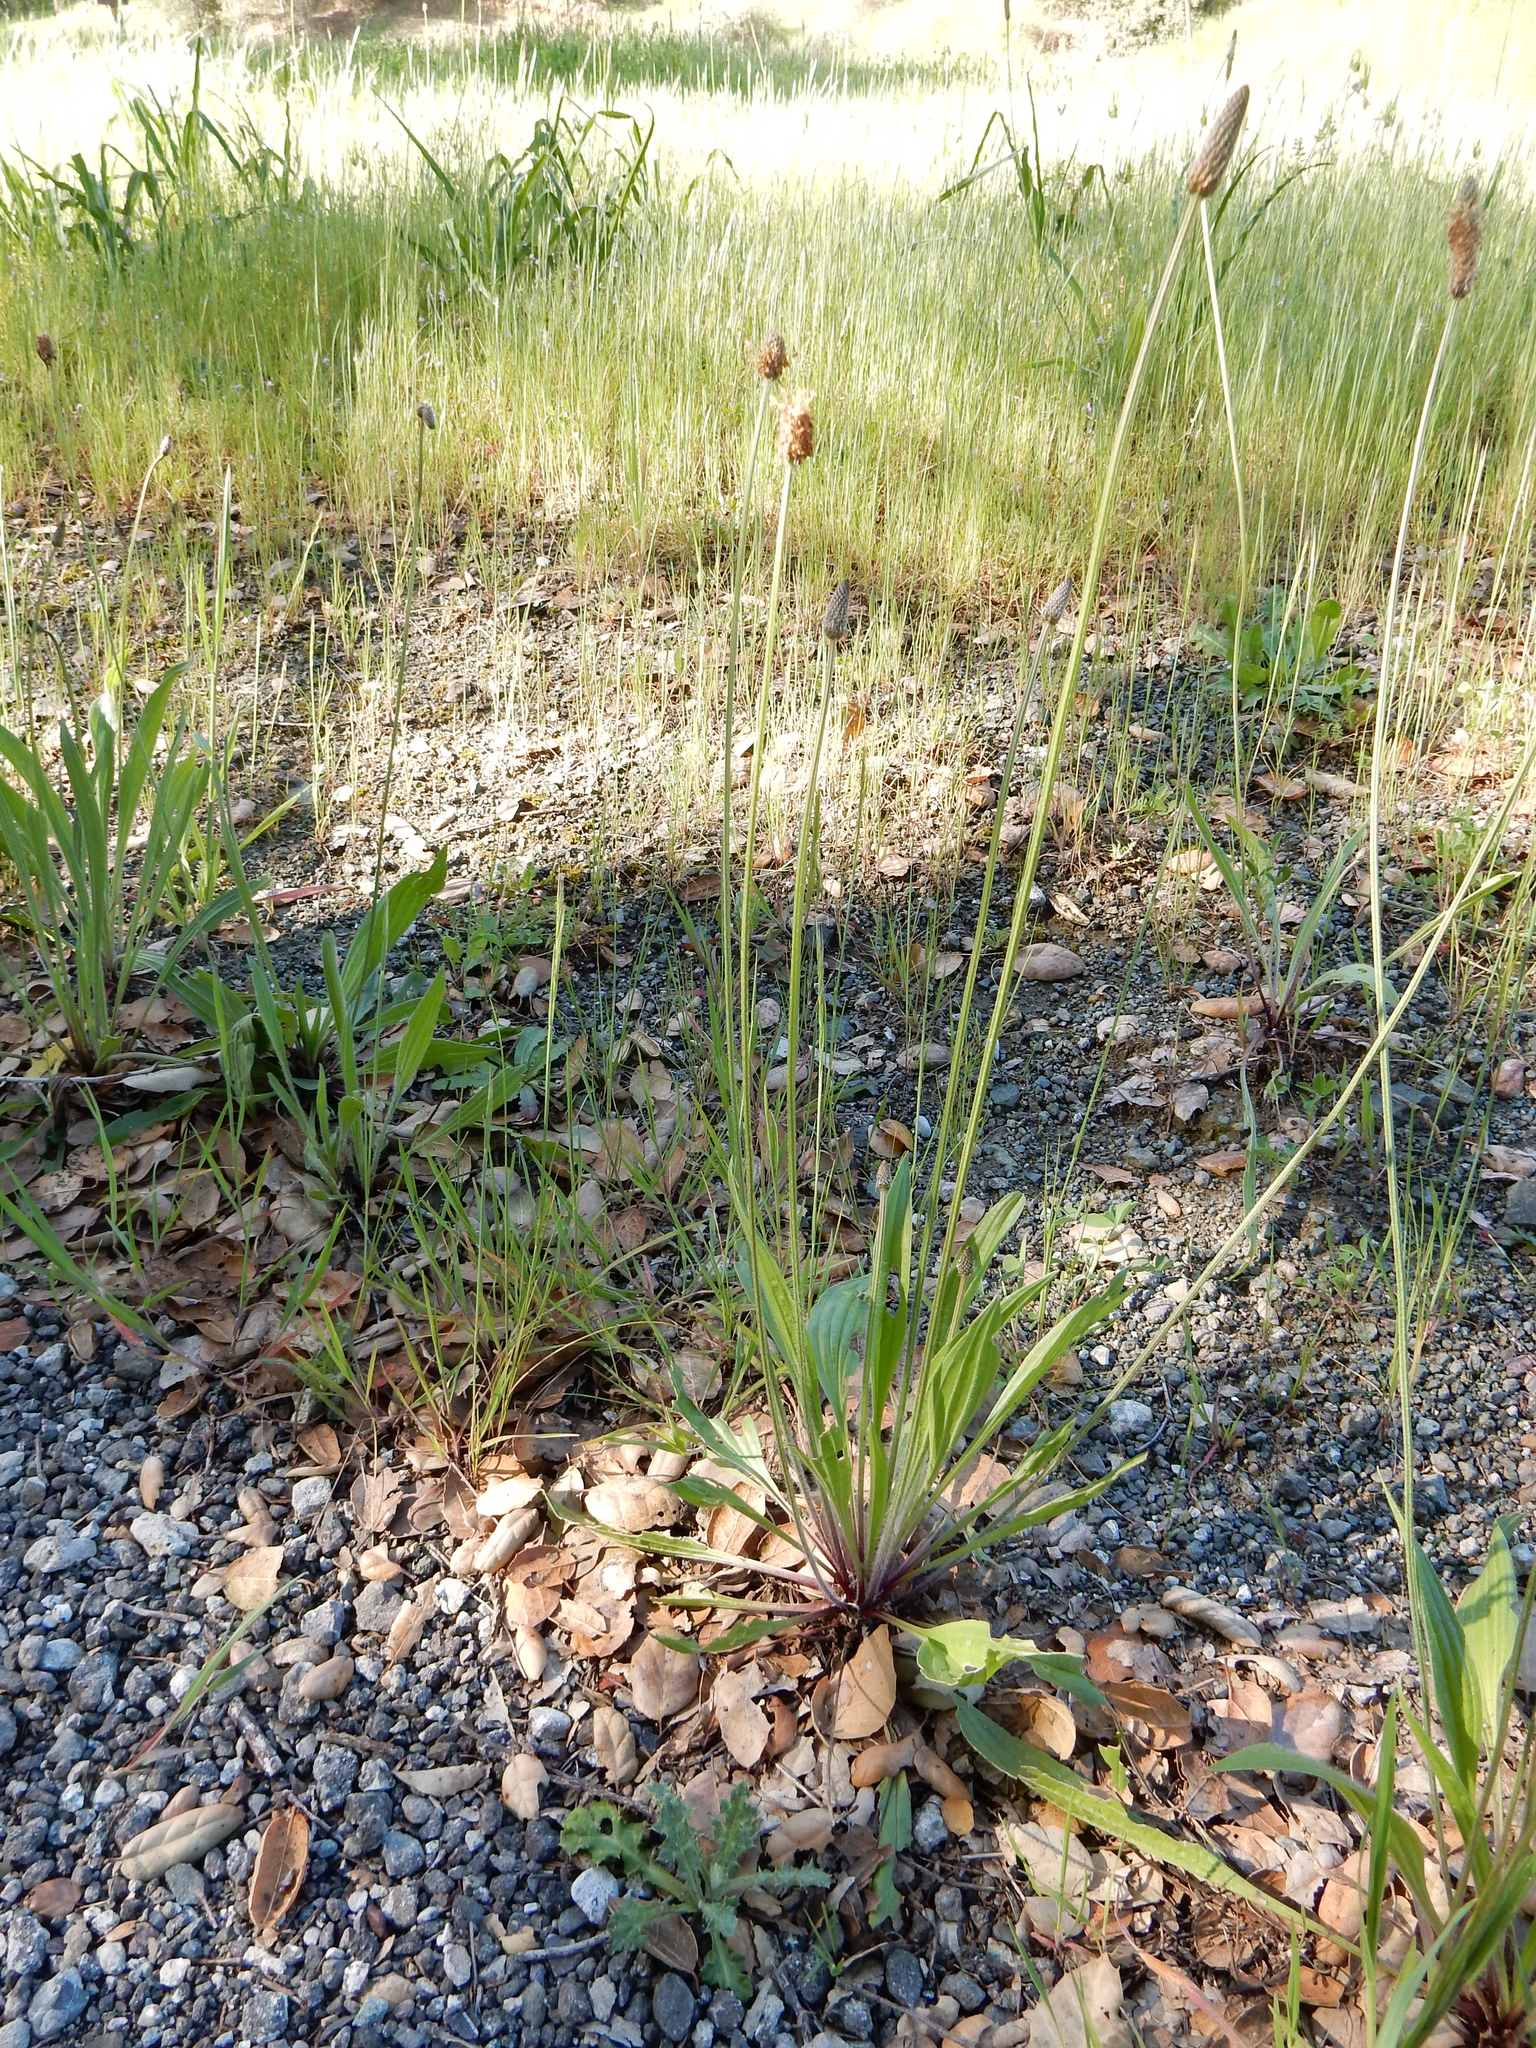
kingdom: Plantae
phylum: Tracheophyta
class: Magnoliopsida
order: Lamiales
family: Plantaginaceae
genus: Plantago
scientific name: Plantago lanceolata
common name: Ribwort plantain
